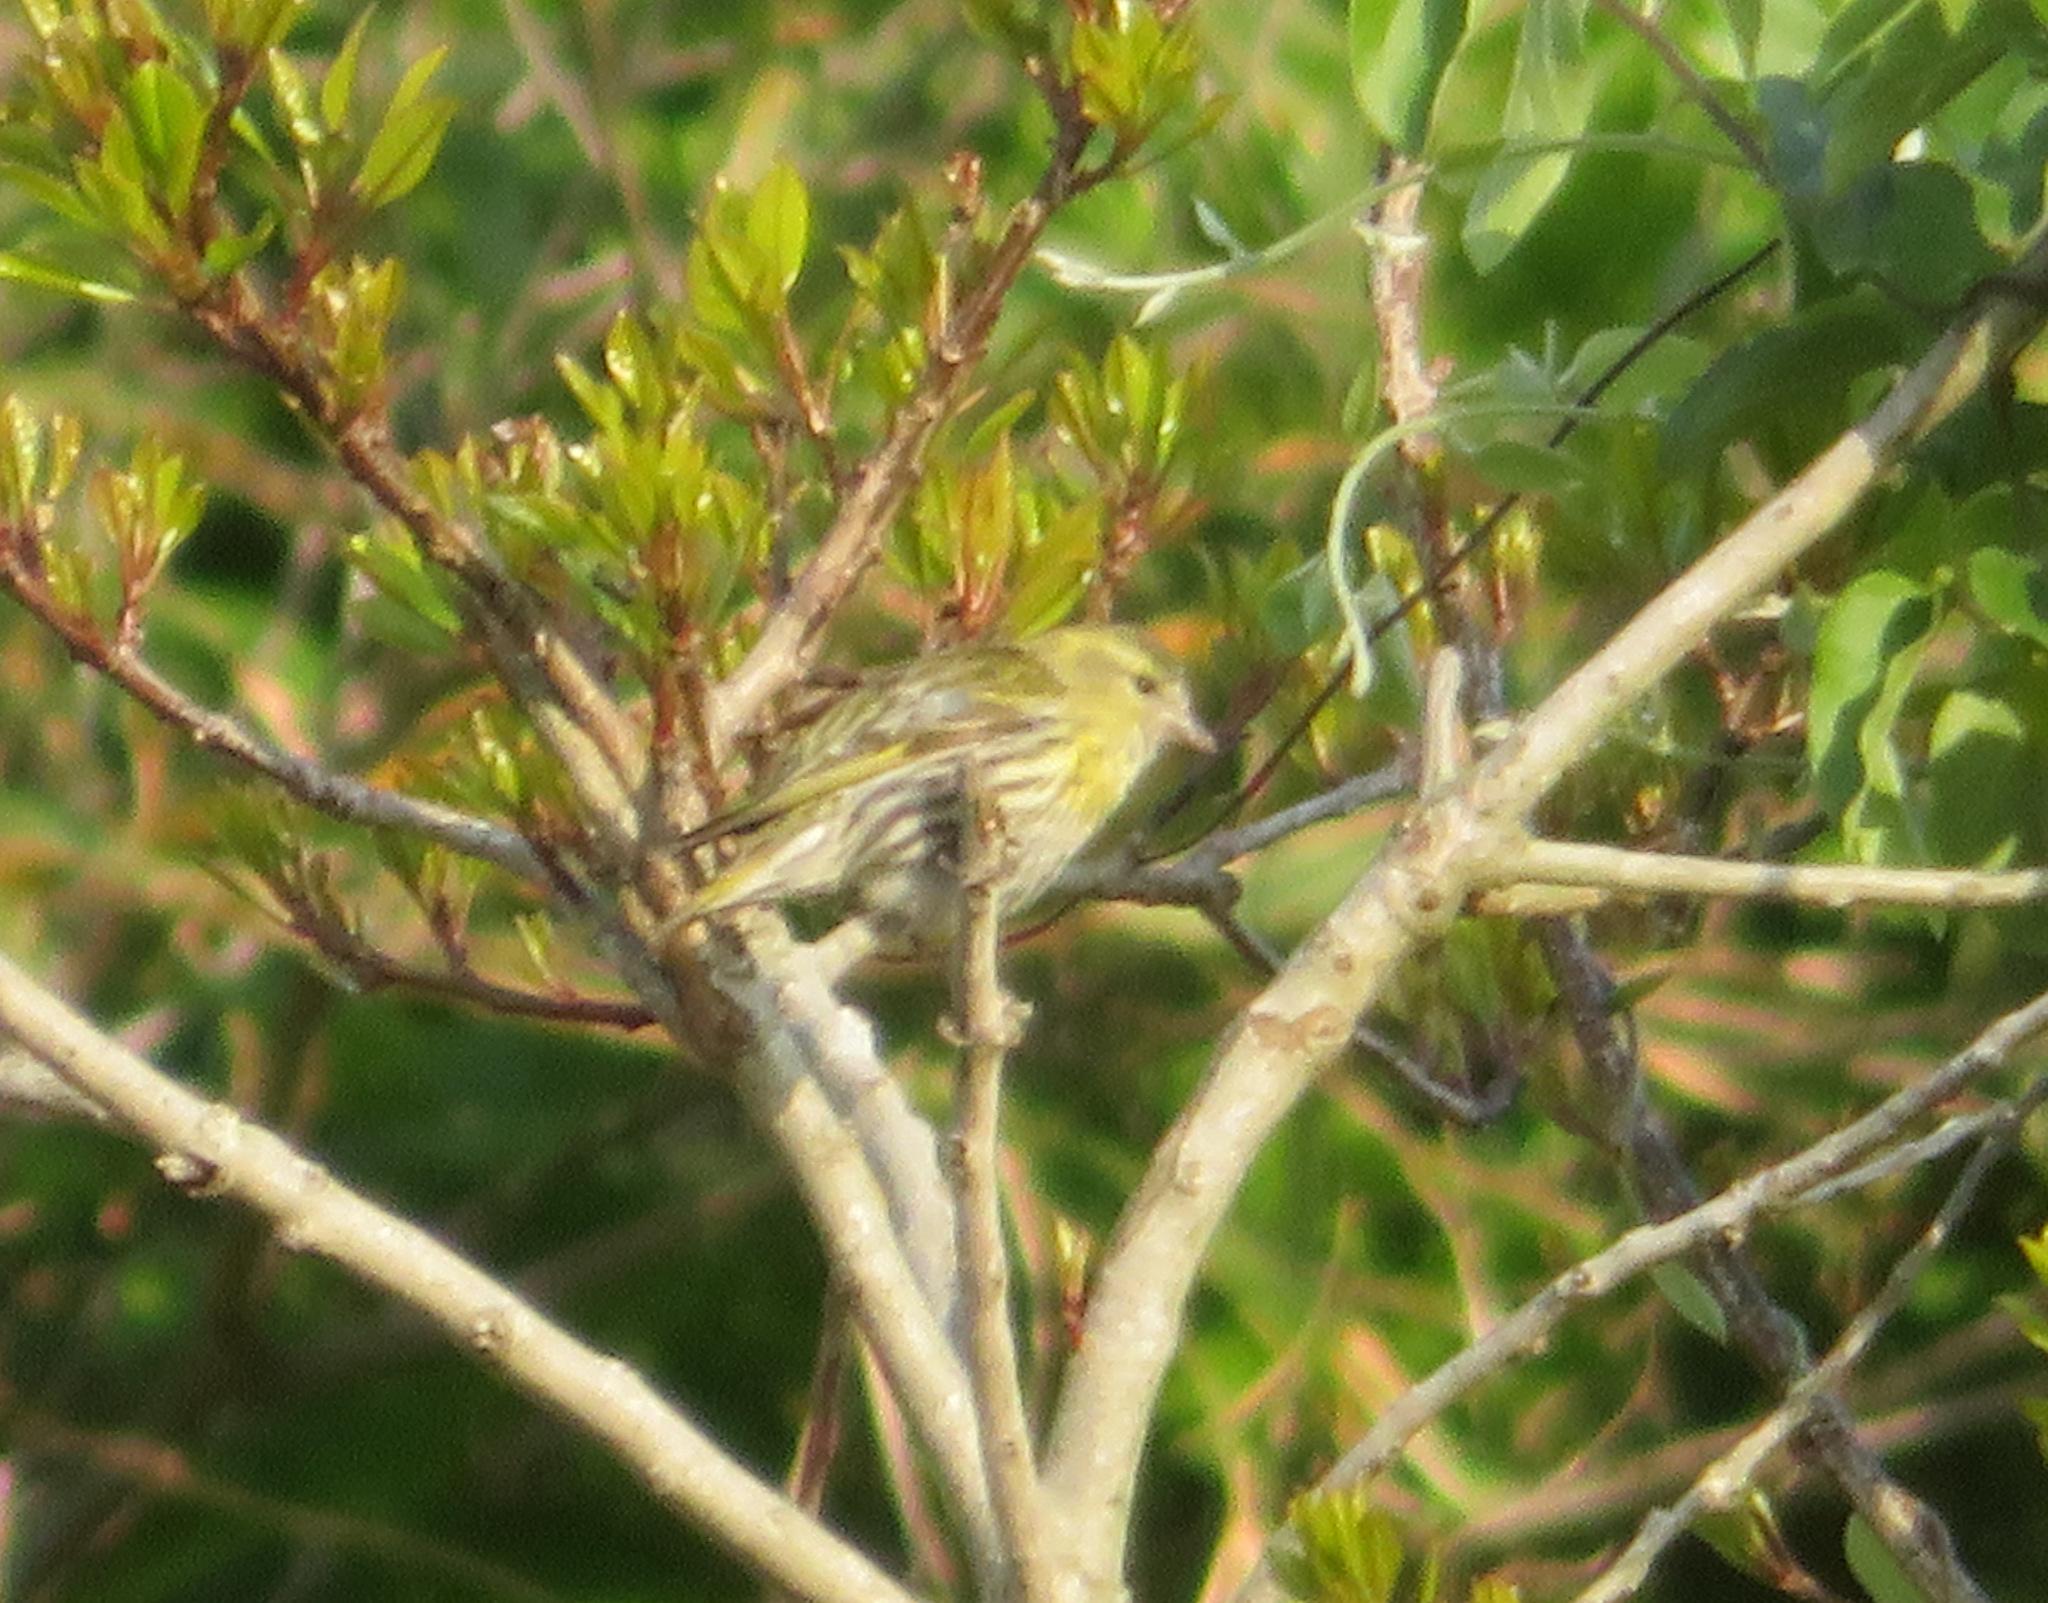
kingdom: Animalia
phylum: Chordata
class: Aves
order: Passeriformes
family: Fringillidae
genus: Spinus
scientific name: Spinus spinus
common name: Eurasian siskin
